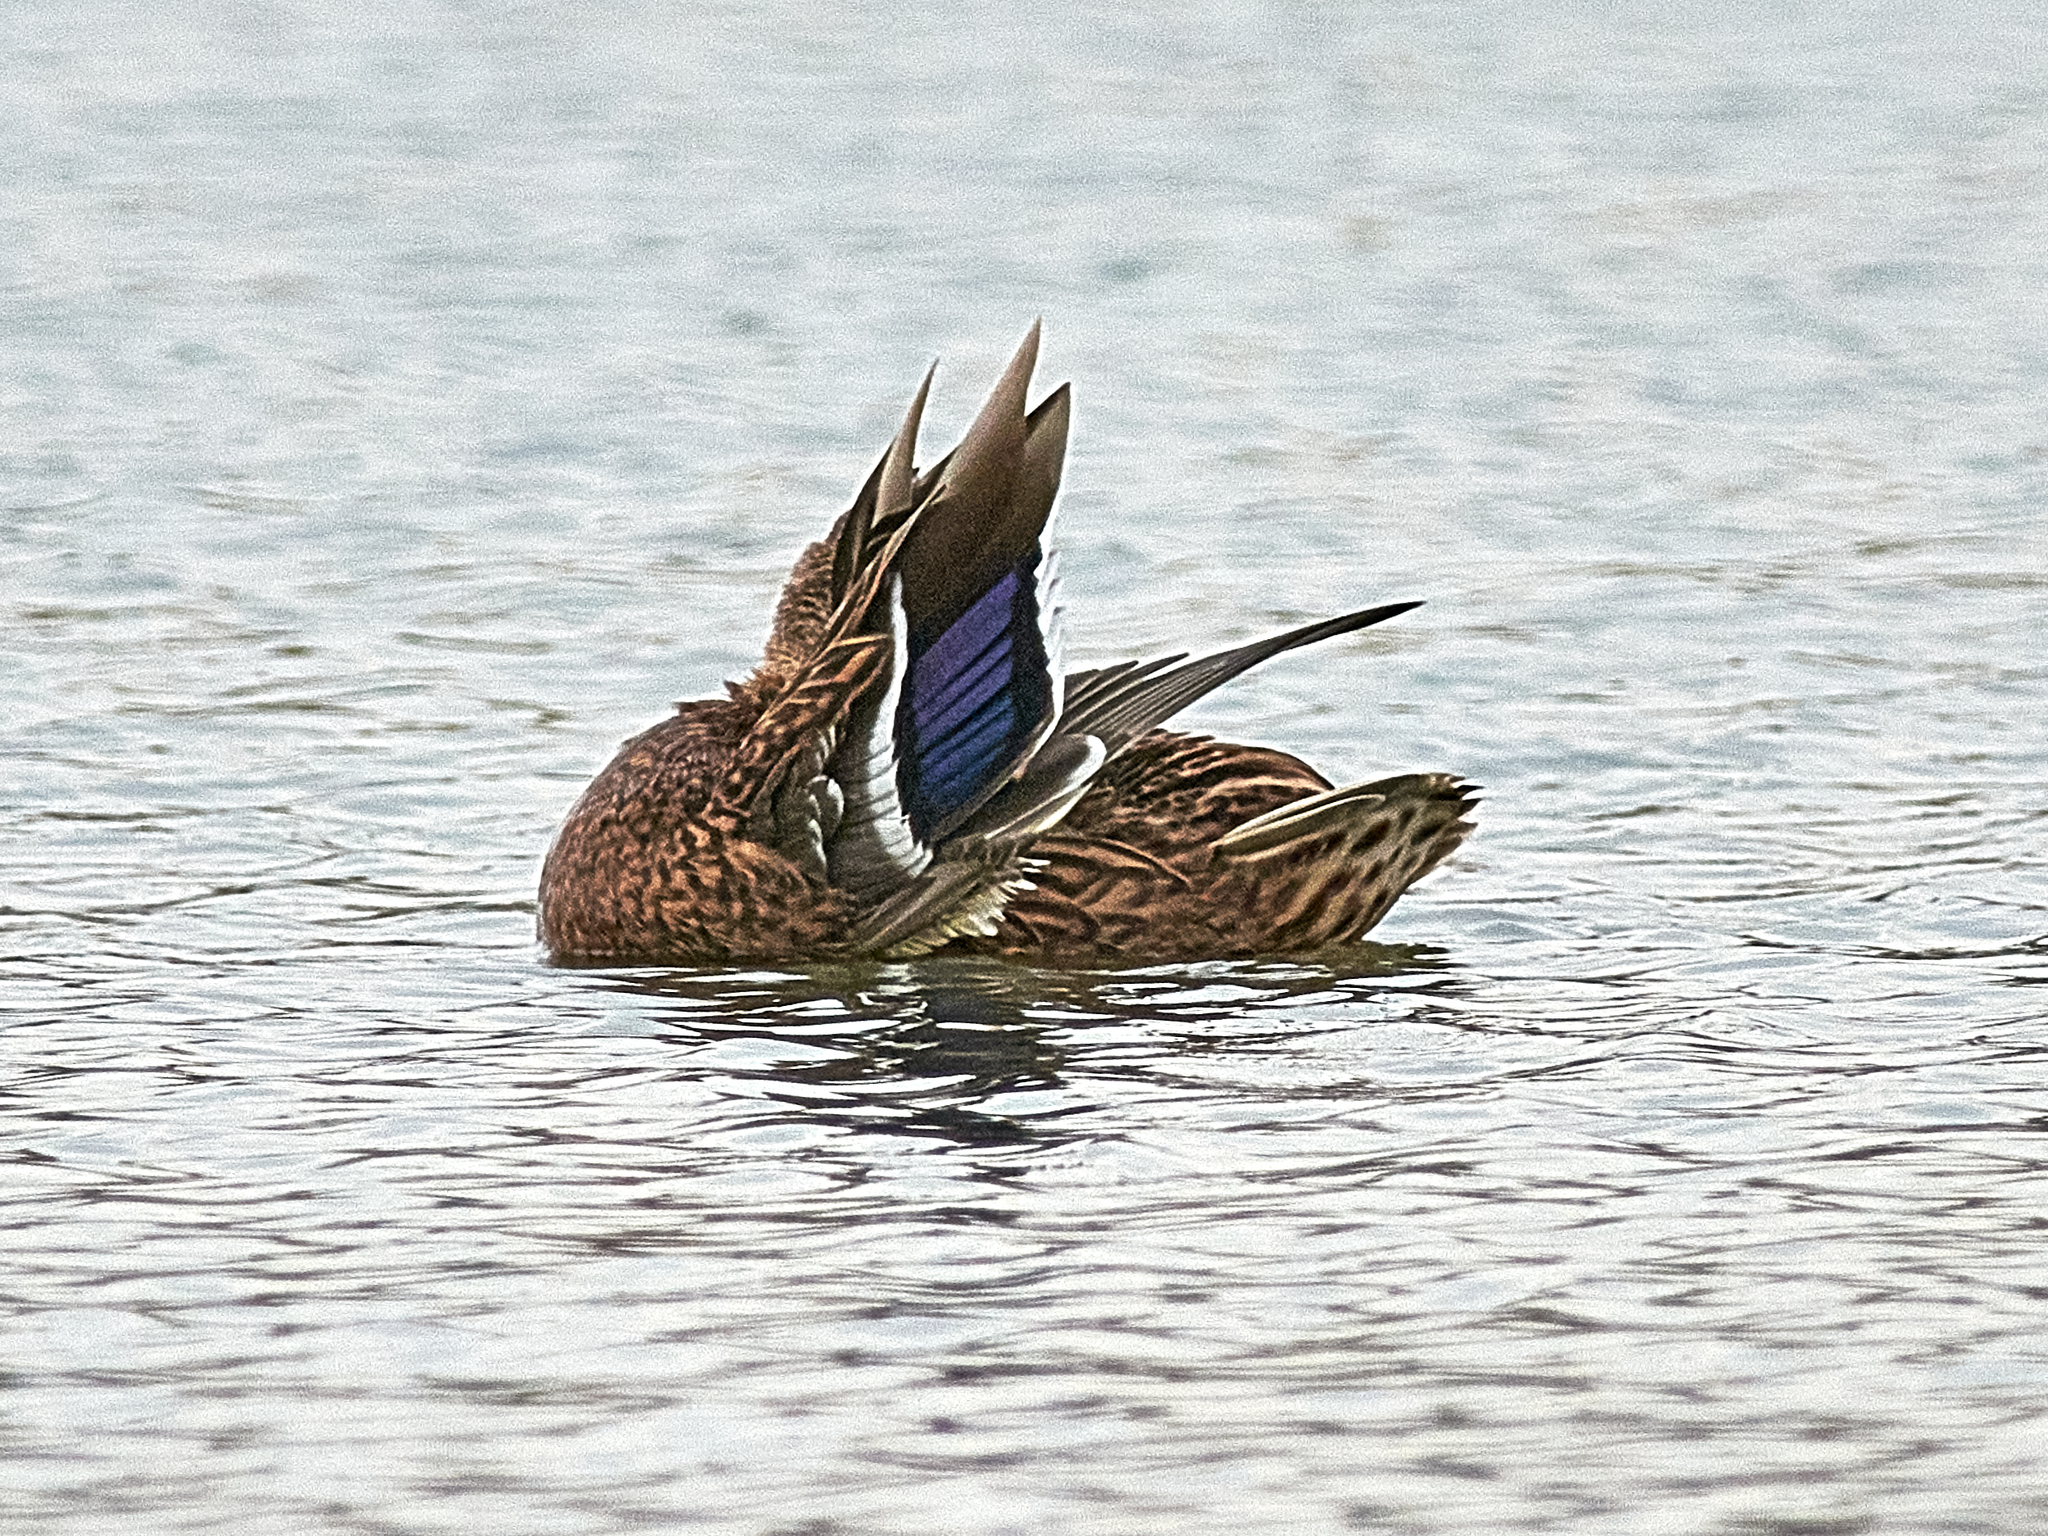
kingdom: Animalia
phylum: Chordata
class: Aves
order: Anseriformes
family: Anatidae
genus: Anas
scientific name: Anas platyrhynchos
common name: Mallard
